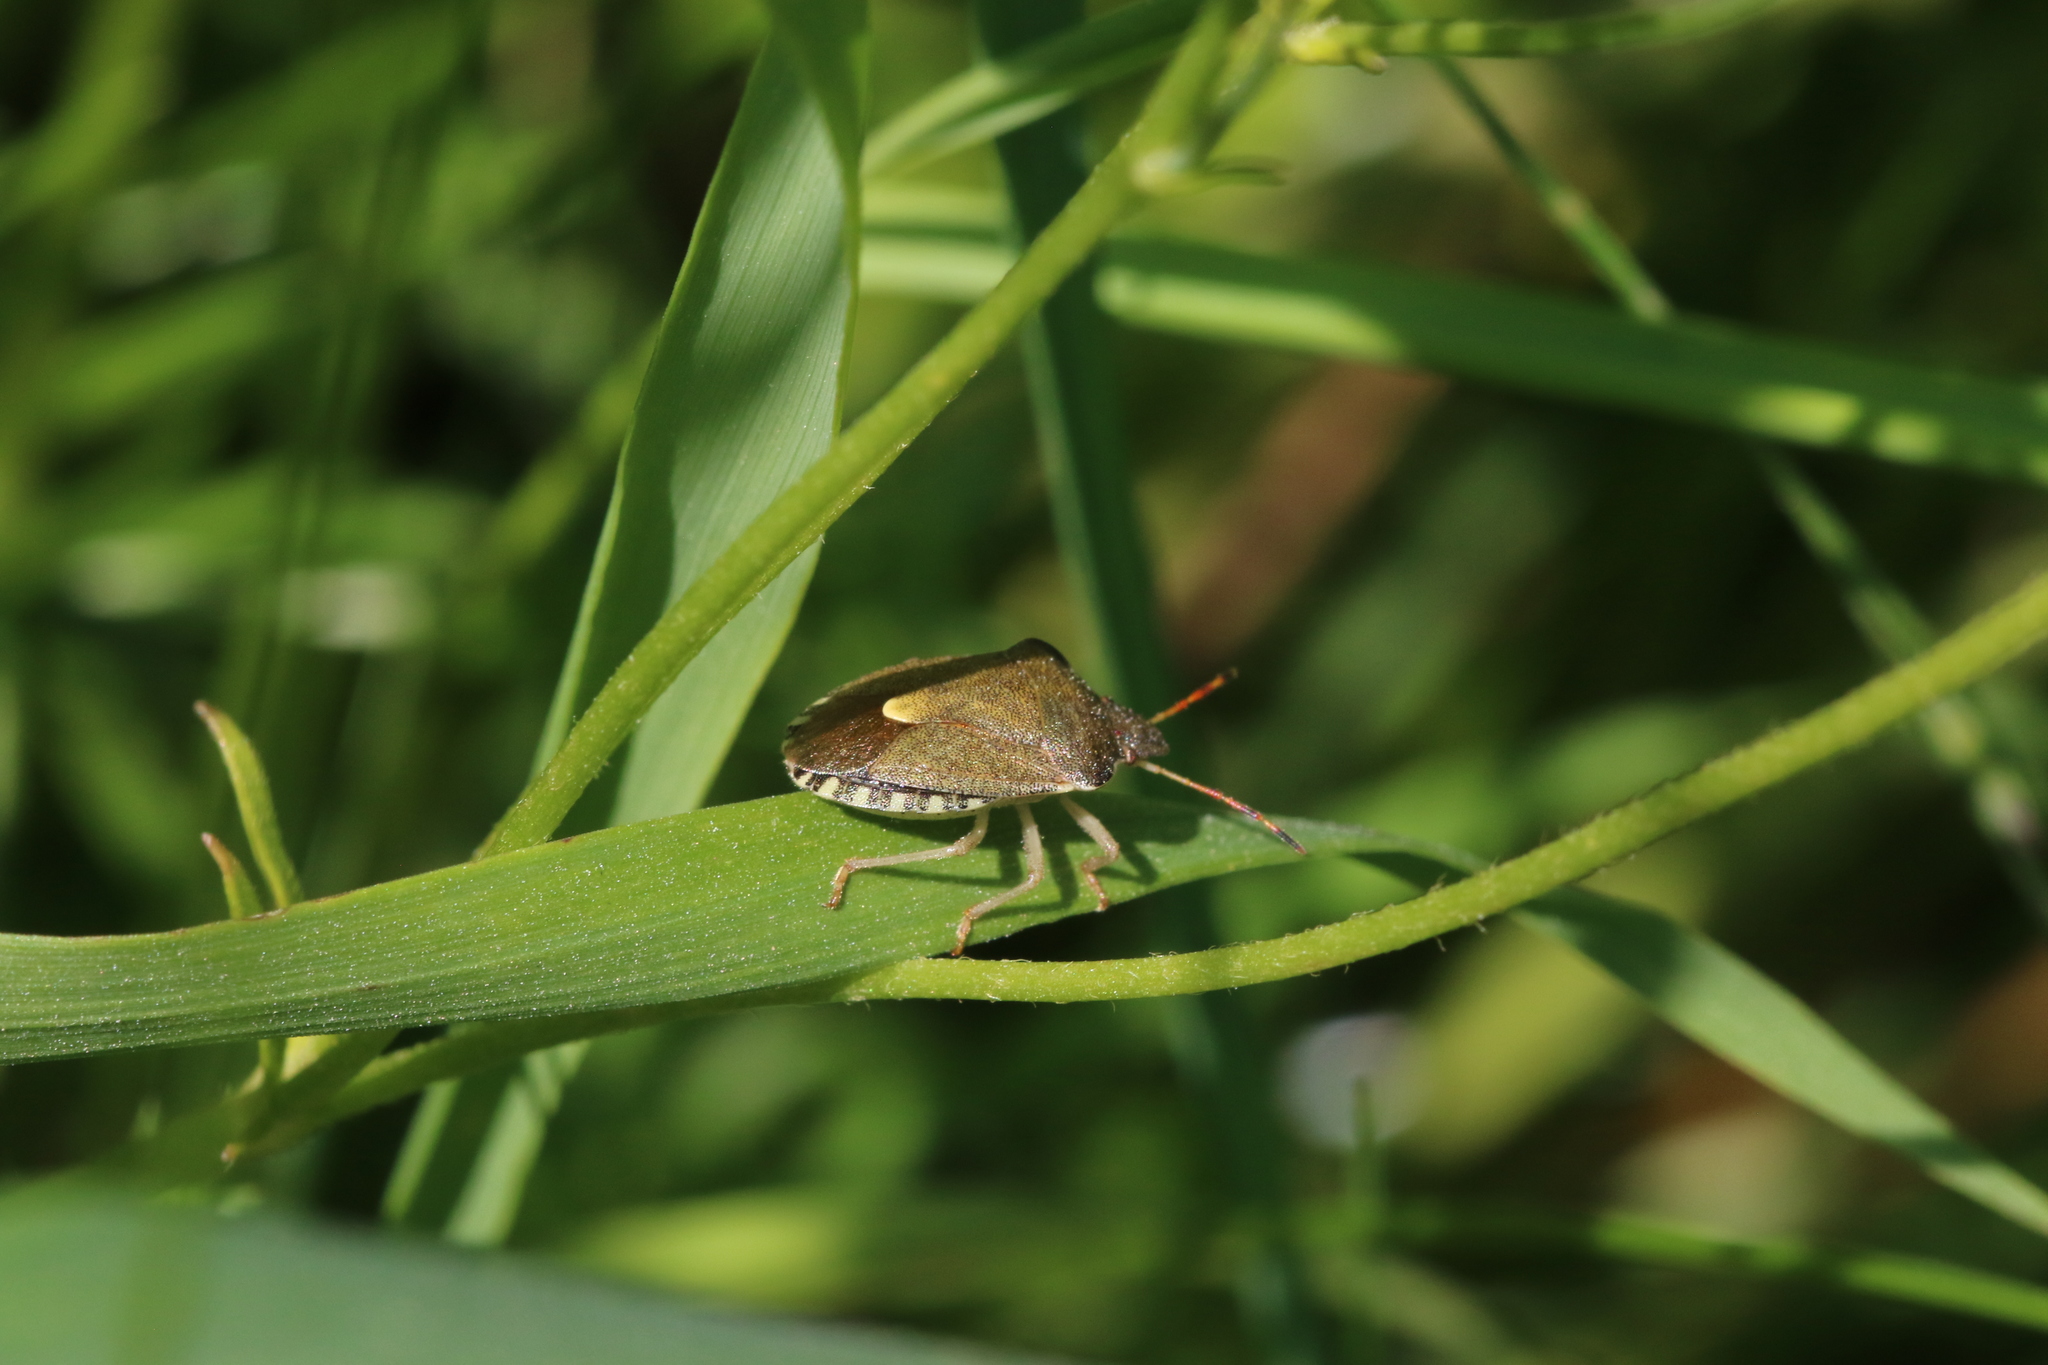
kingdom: Animalia
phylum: Arthropoda
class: Insecta
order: Hemiptera
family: Pentatomidae
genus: Holcostethus
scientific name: Holcostethus strictus
